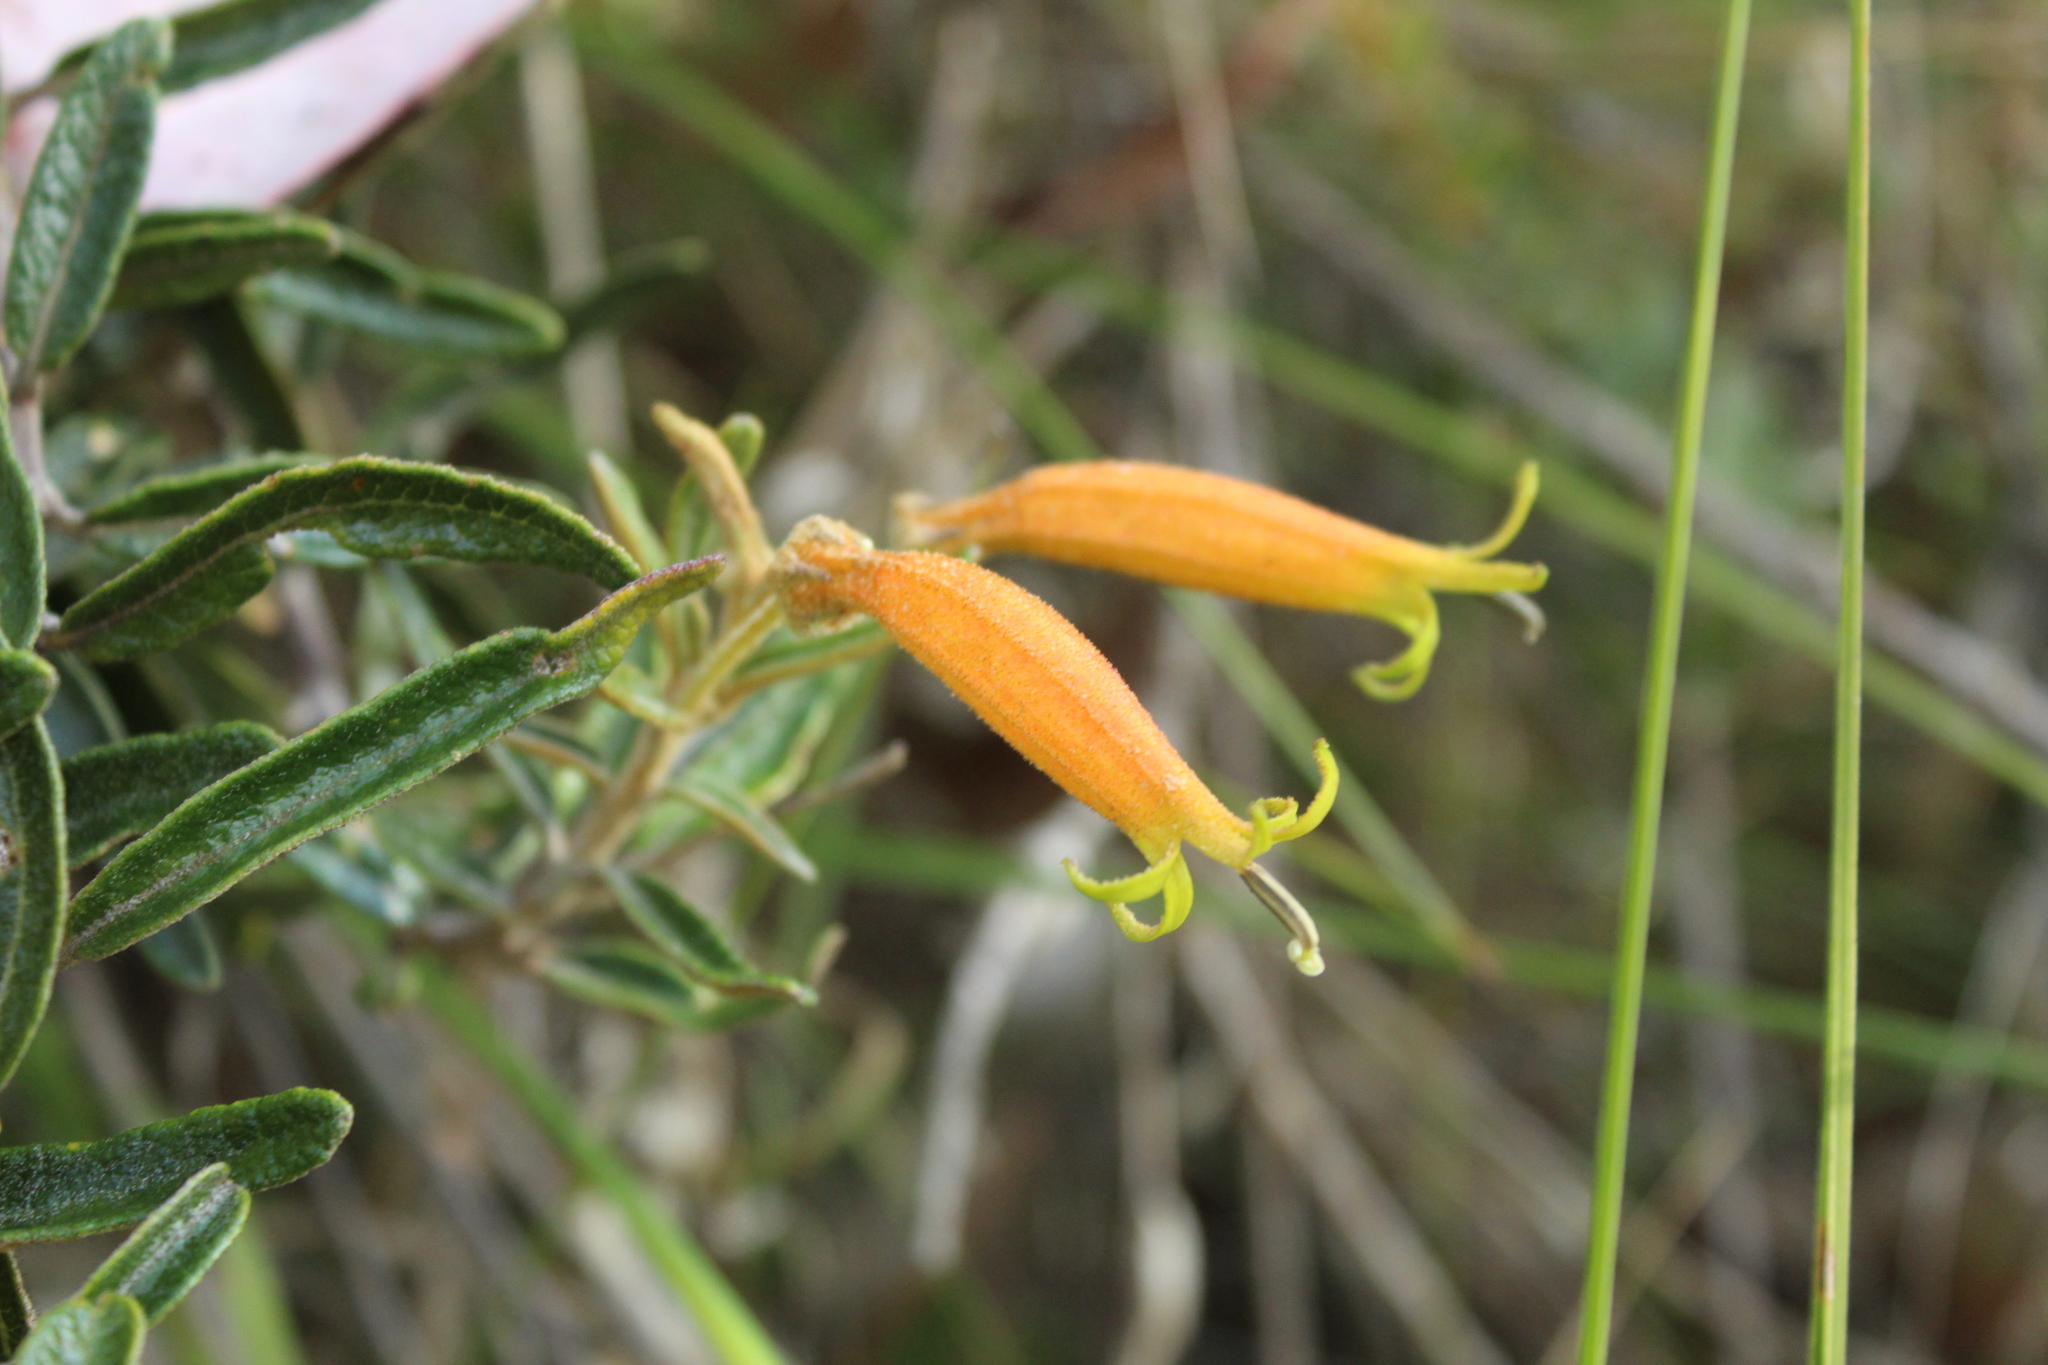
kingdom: Plantae
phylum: Tracheophyta
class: Magnoliopsida
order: Asterales
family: Campanulaceae
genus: Siphocampylus
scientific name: Siphocampylus columnae
